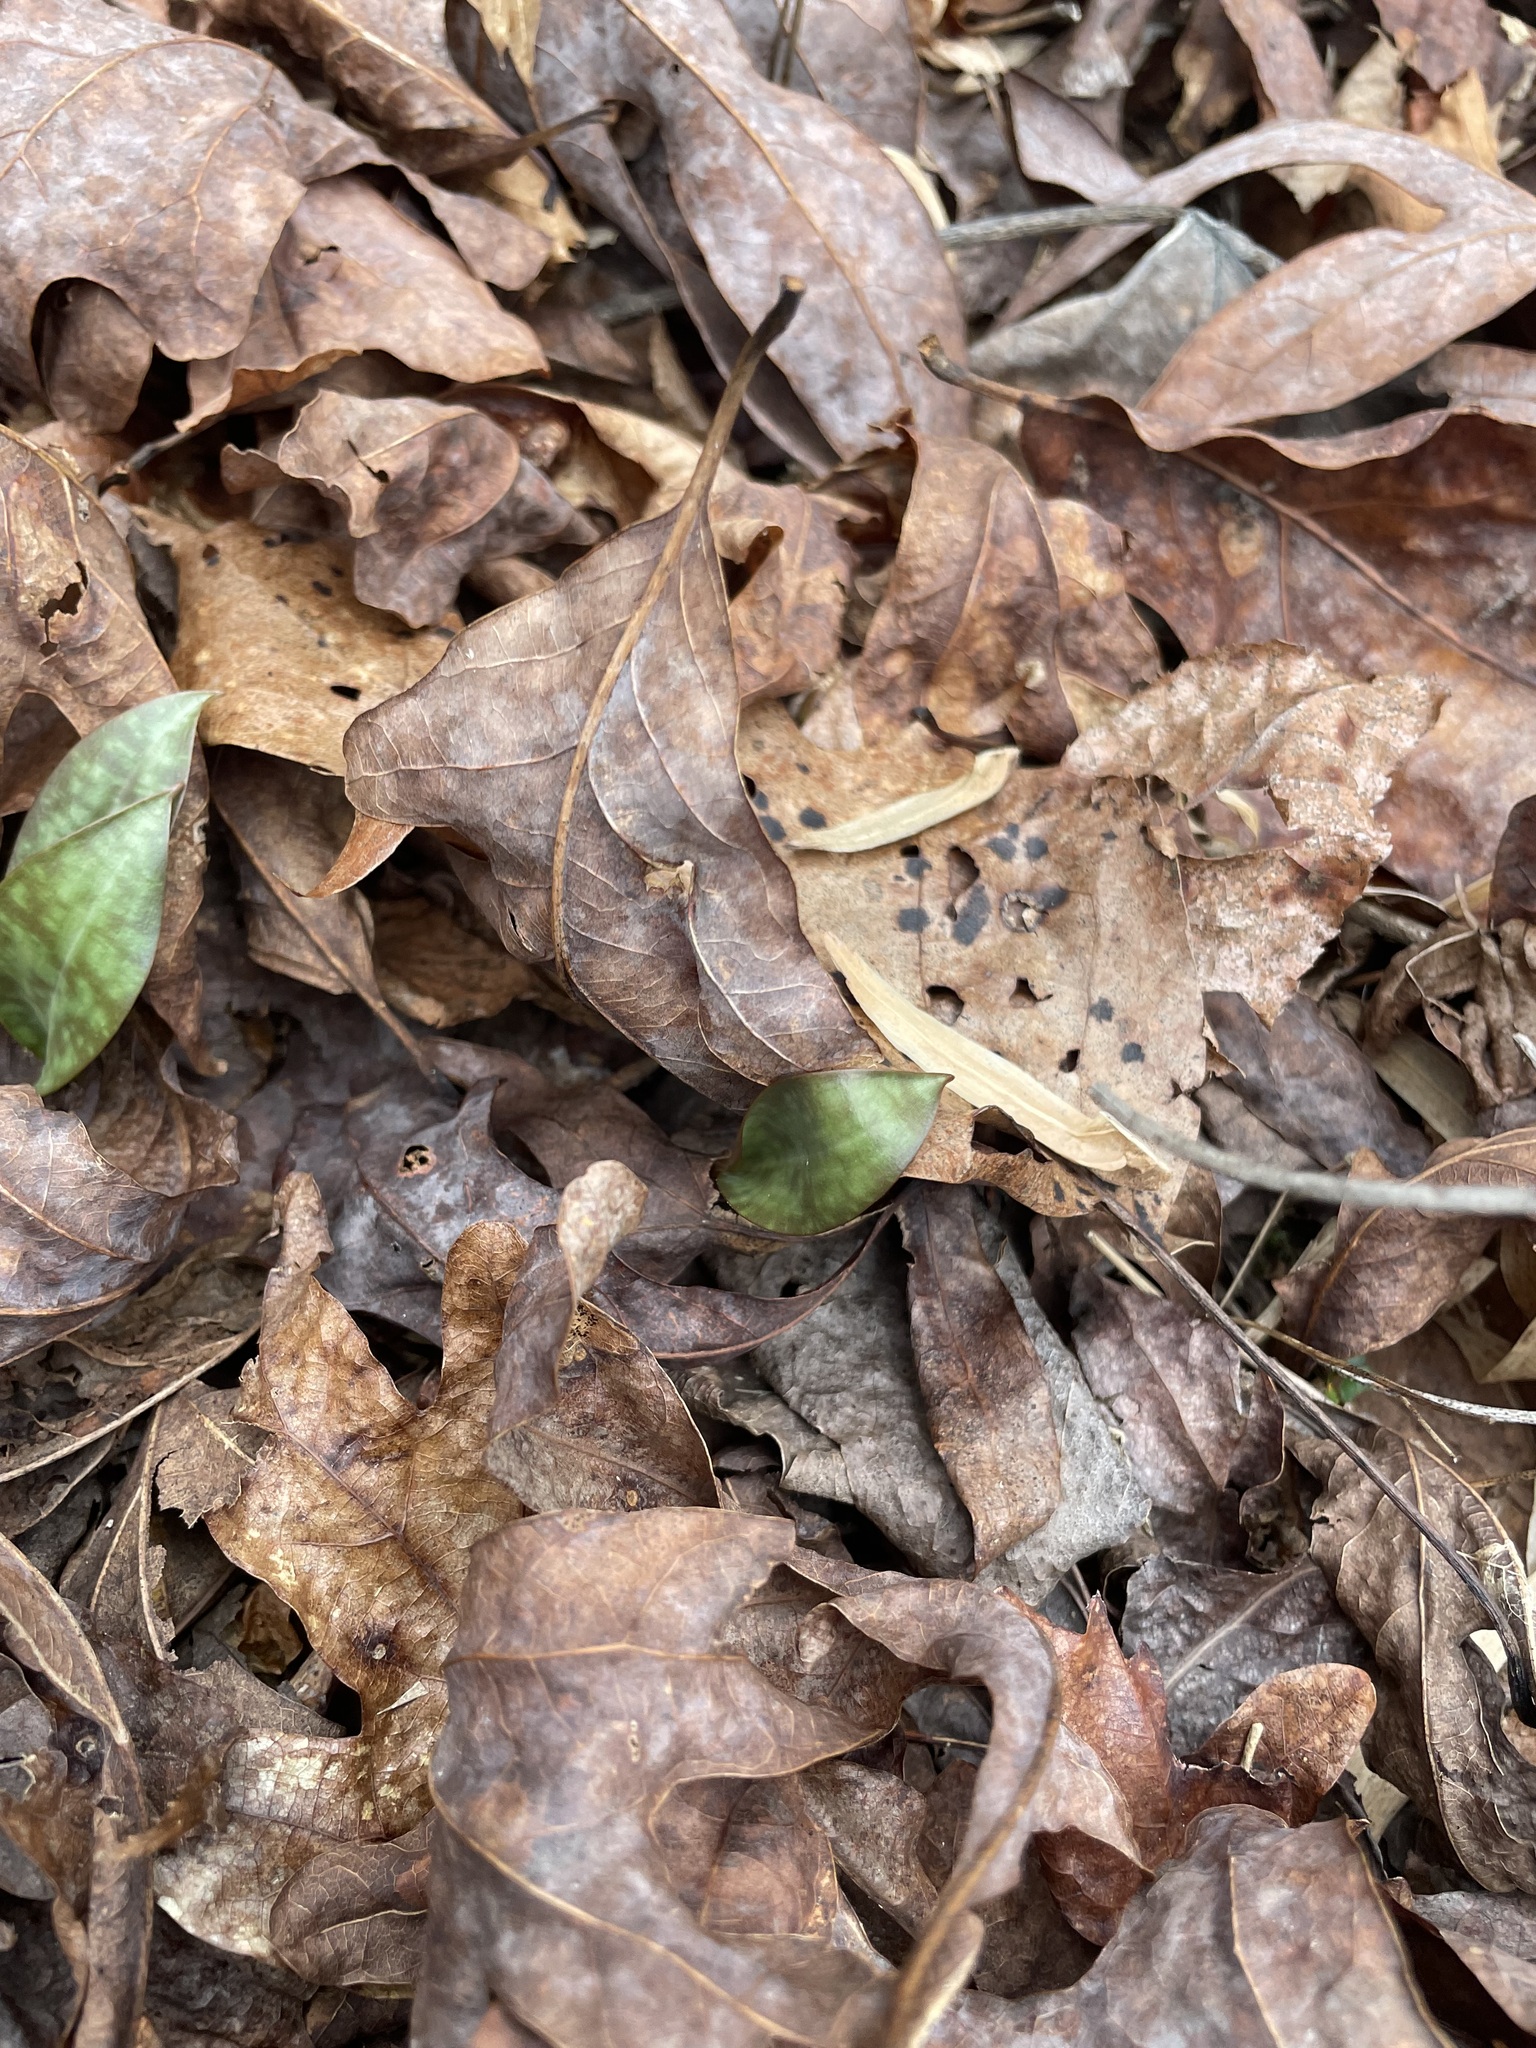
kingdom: Plantae
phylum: Tracheophyta
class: Liliopsida
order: Liliales
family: Liliaceae
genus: Erythronium
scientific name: Erythronium umbilicatum
